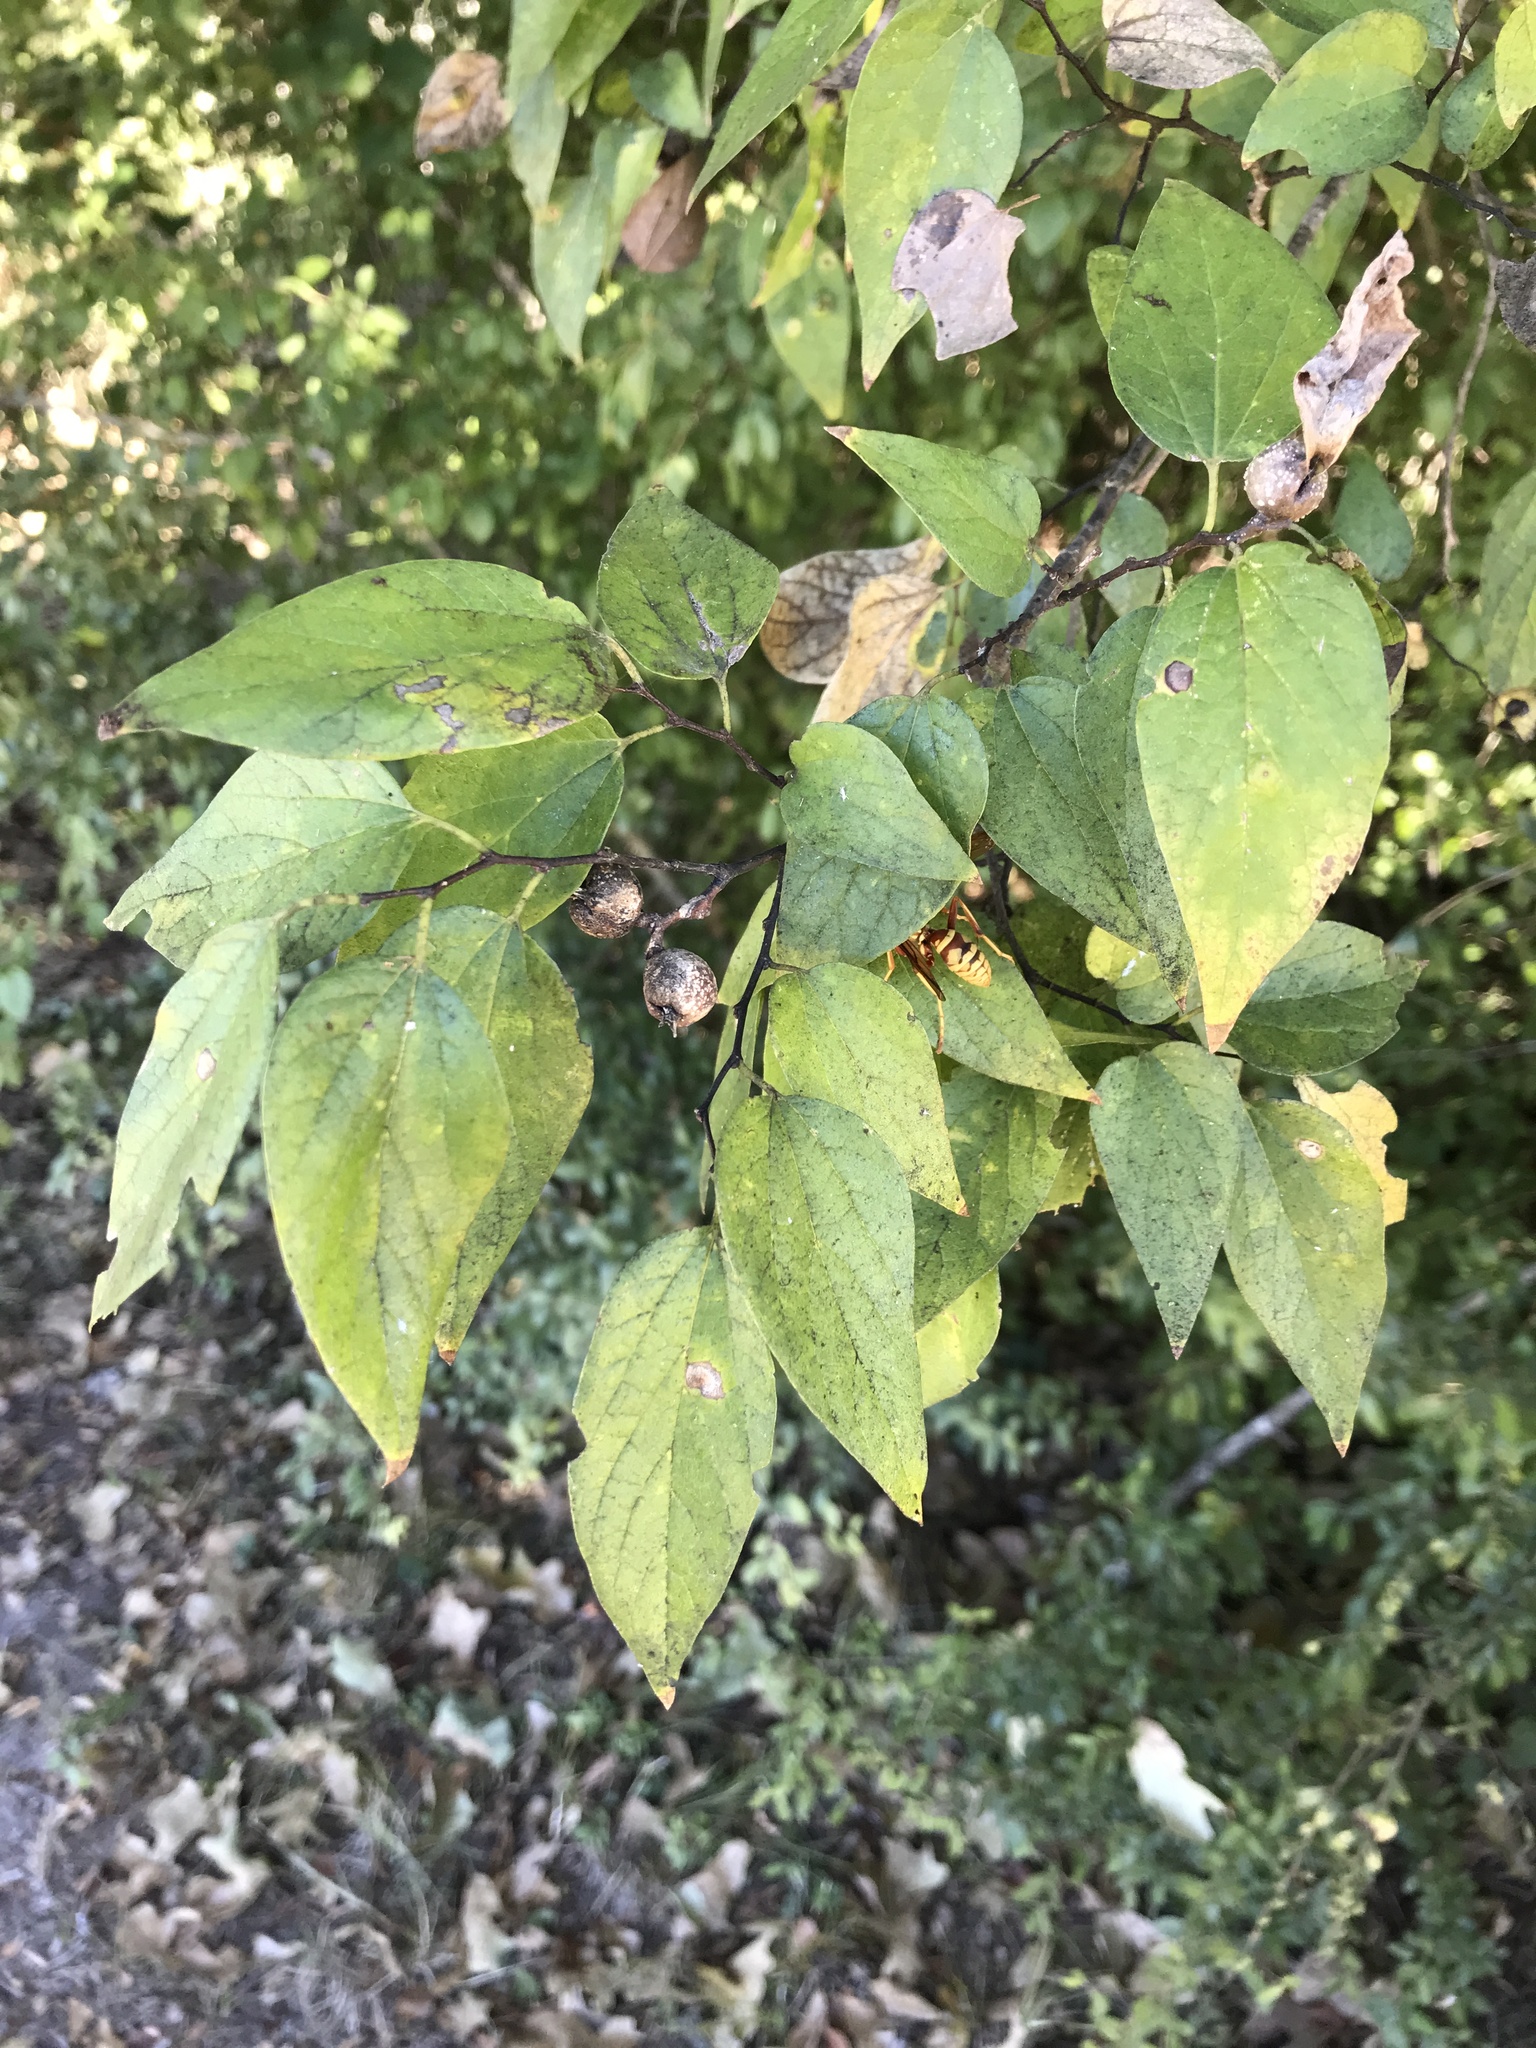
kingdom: Plantae
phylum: Tracheophyta
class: Magnoliopsida
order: Rosales
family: Cannabaceae
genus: Celtis
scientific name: Celtis laevigata
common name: Sugarberry
